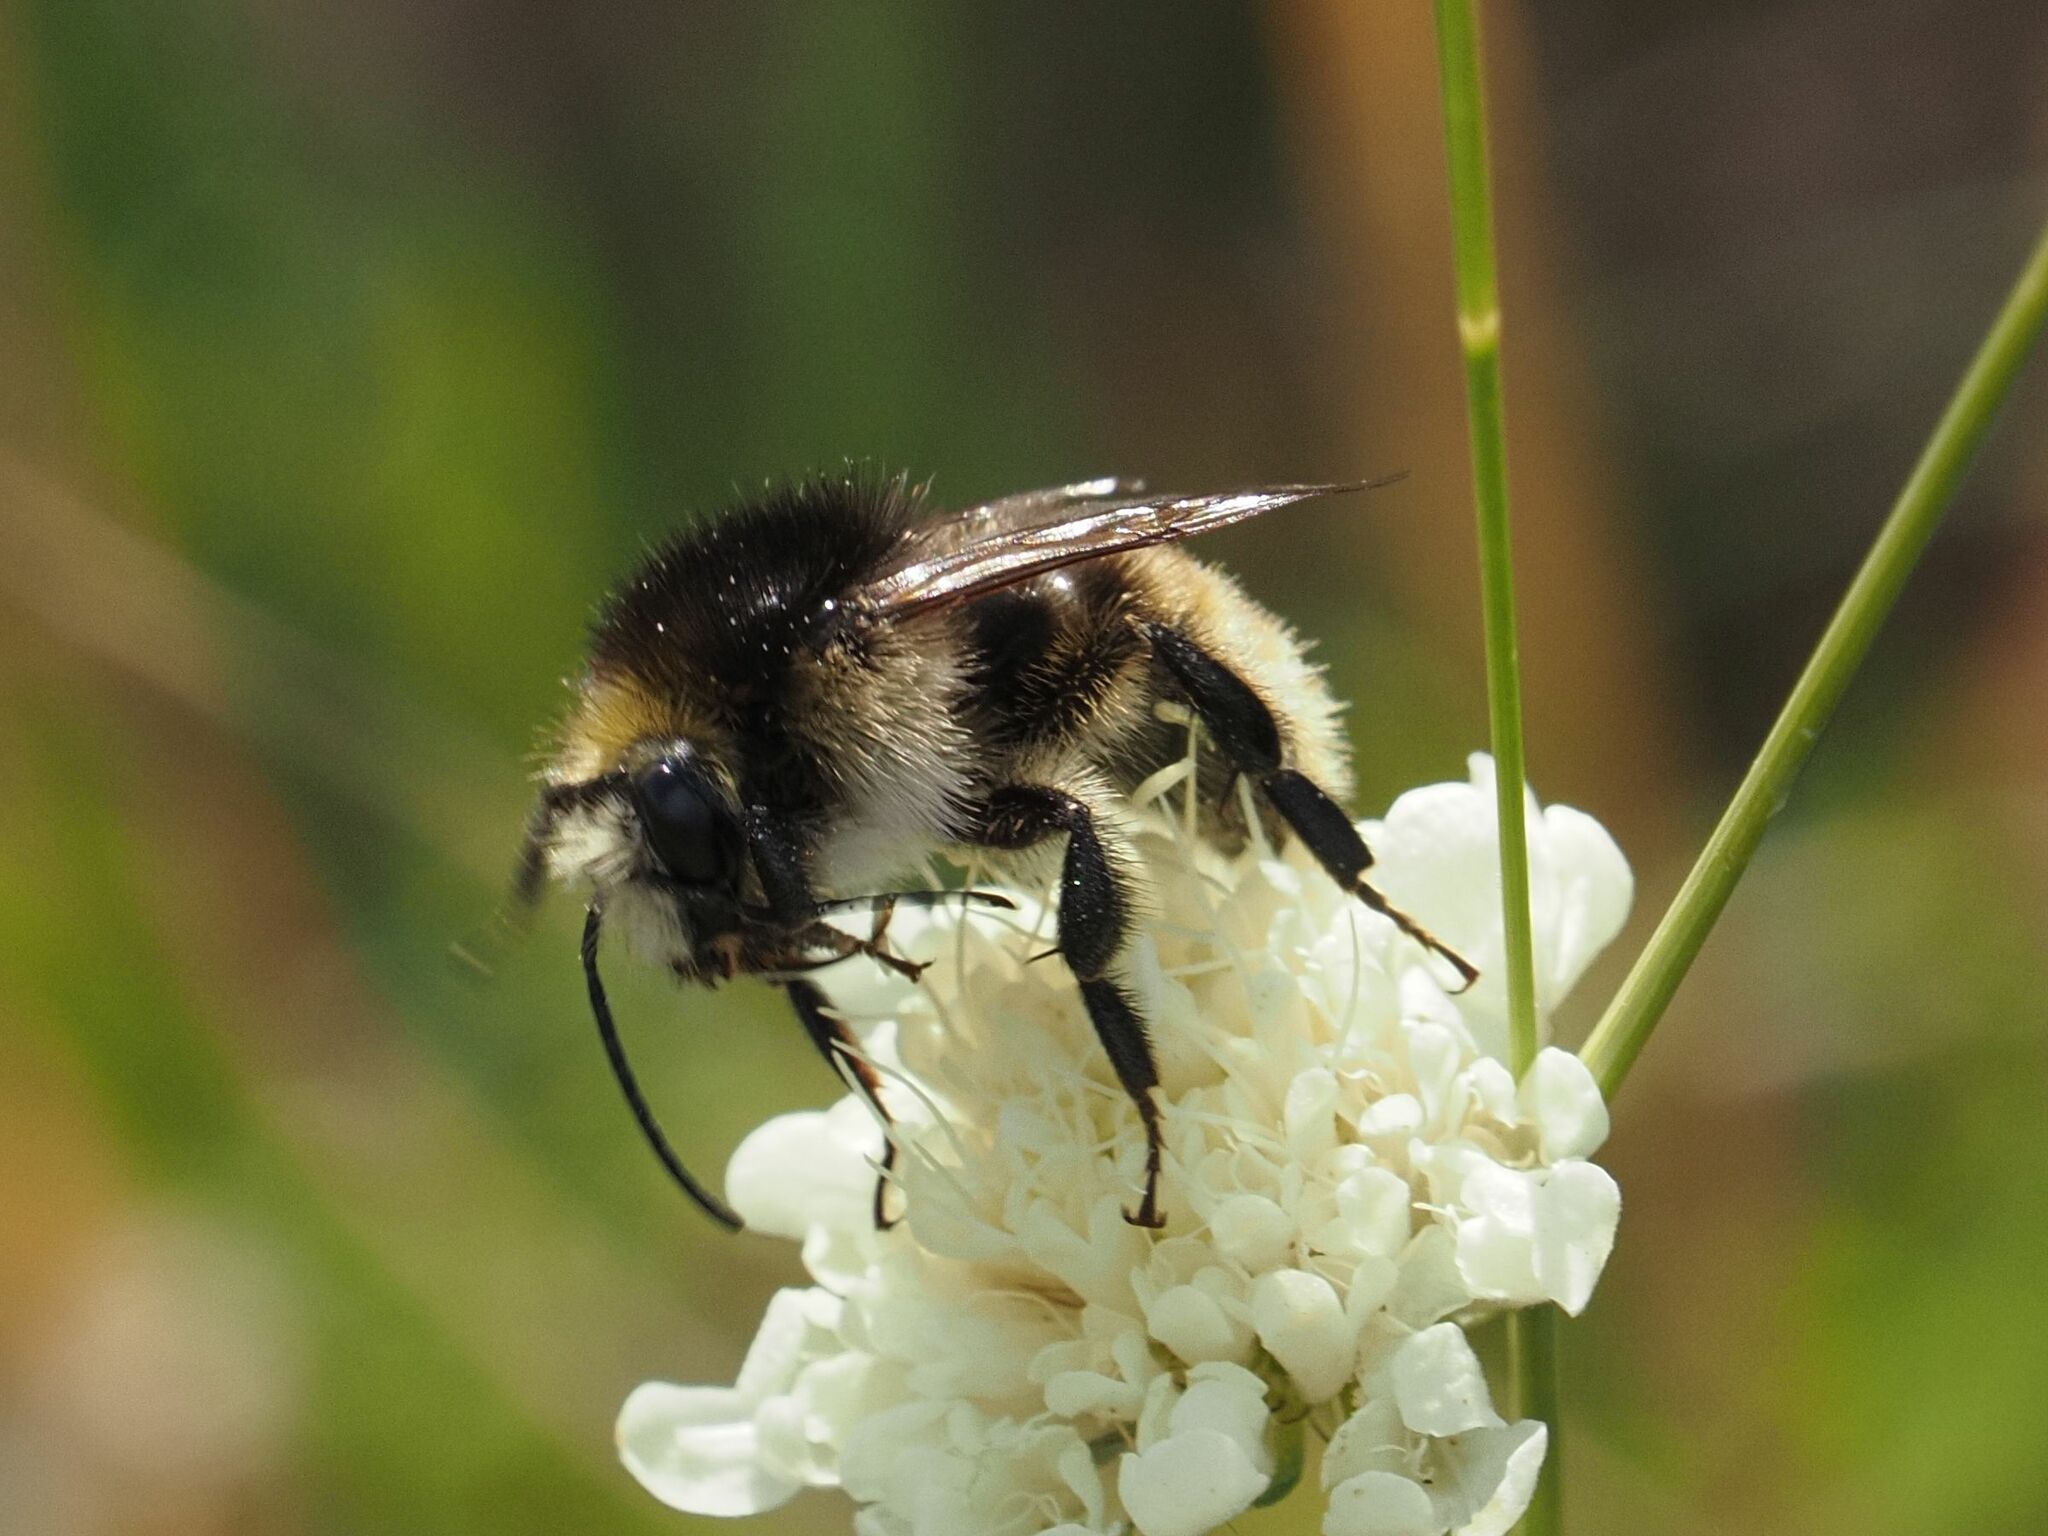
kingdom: Animalia
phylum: Arthropoda
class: Insecta
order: Hymenoptera
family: Apidae
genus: Bombus
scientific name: Bombus humilis
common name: Brown-banded carder-bee
